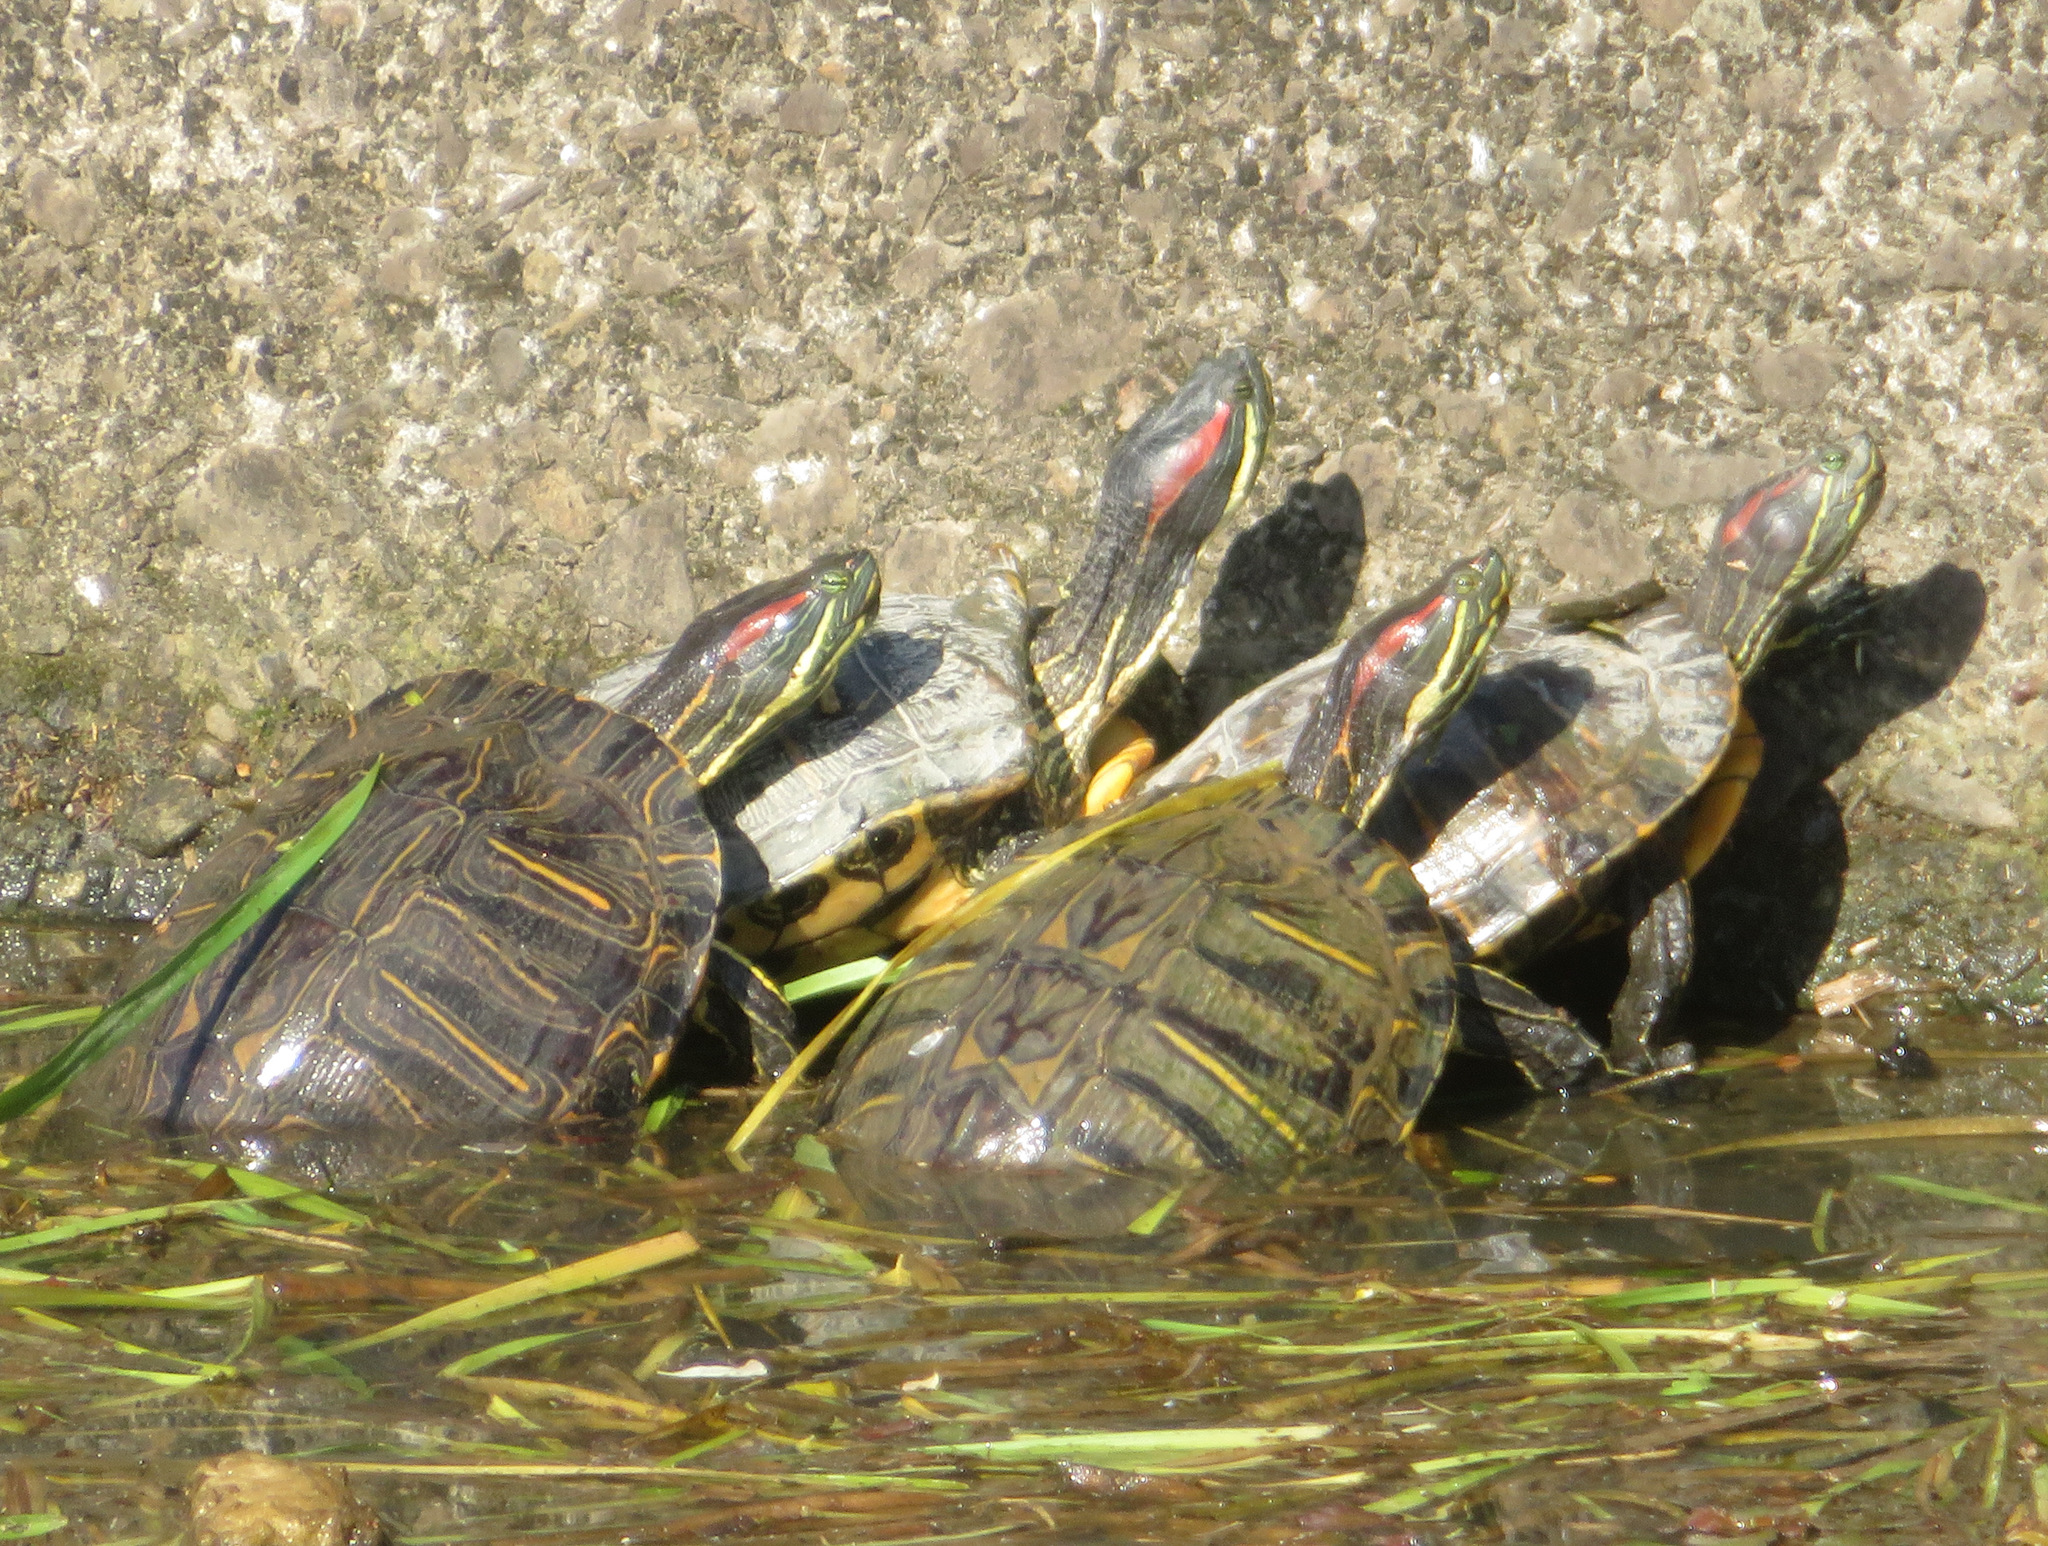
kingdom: Animalia
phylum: Chordata
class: Testudines
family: Emydidae
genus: Trachemys
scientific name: Trachemys scripta
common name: Slider
